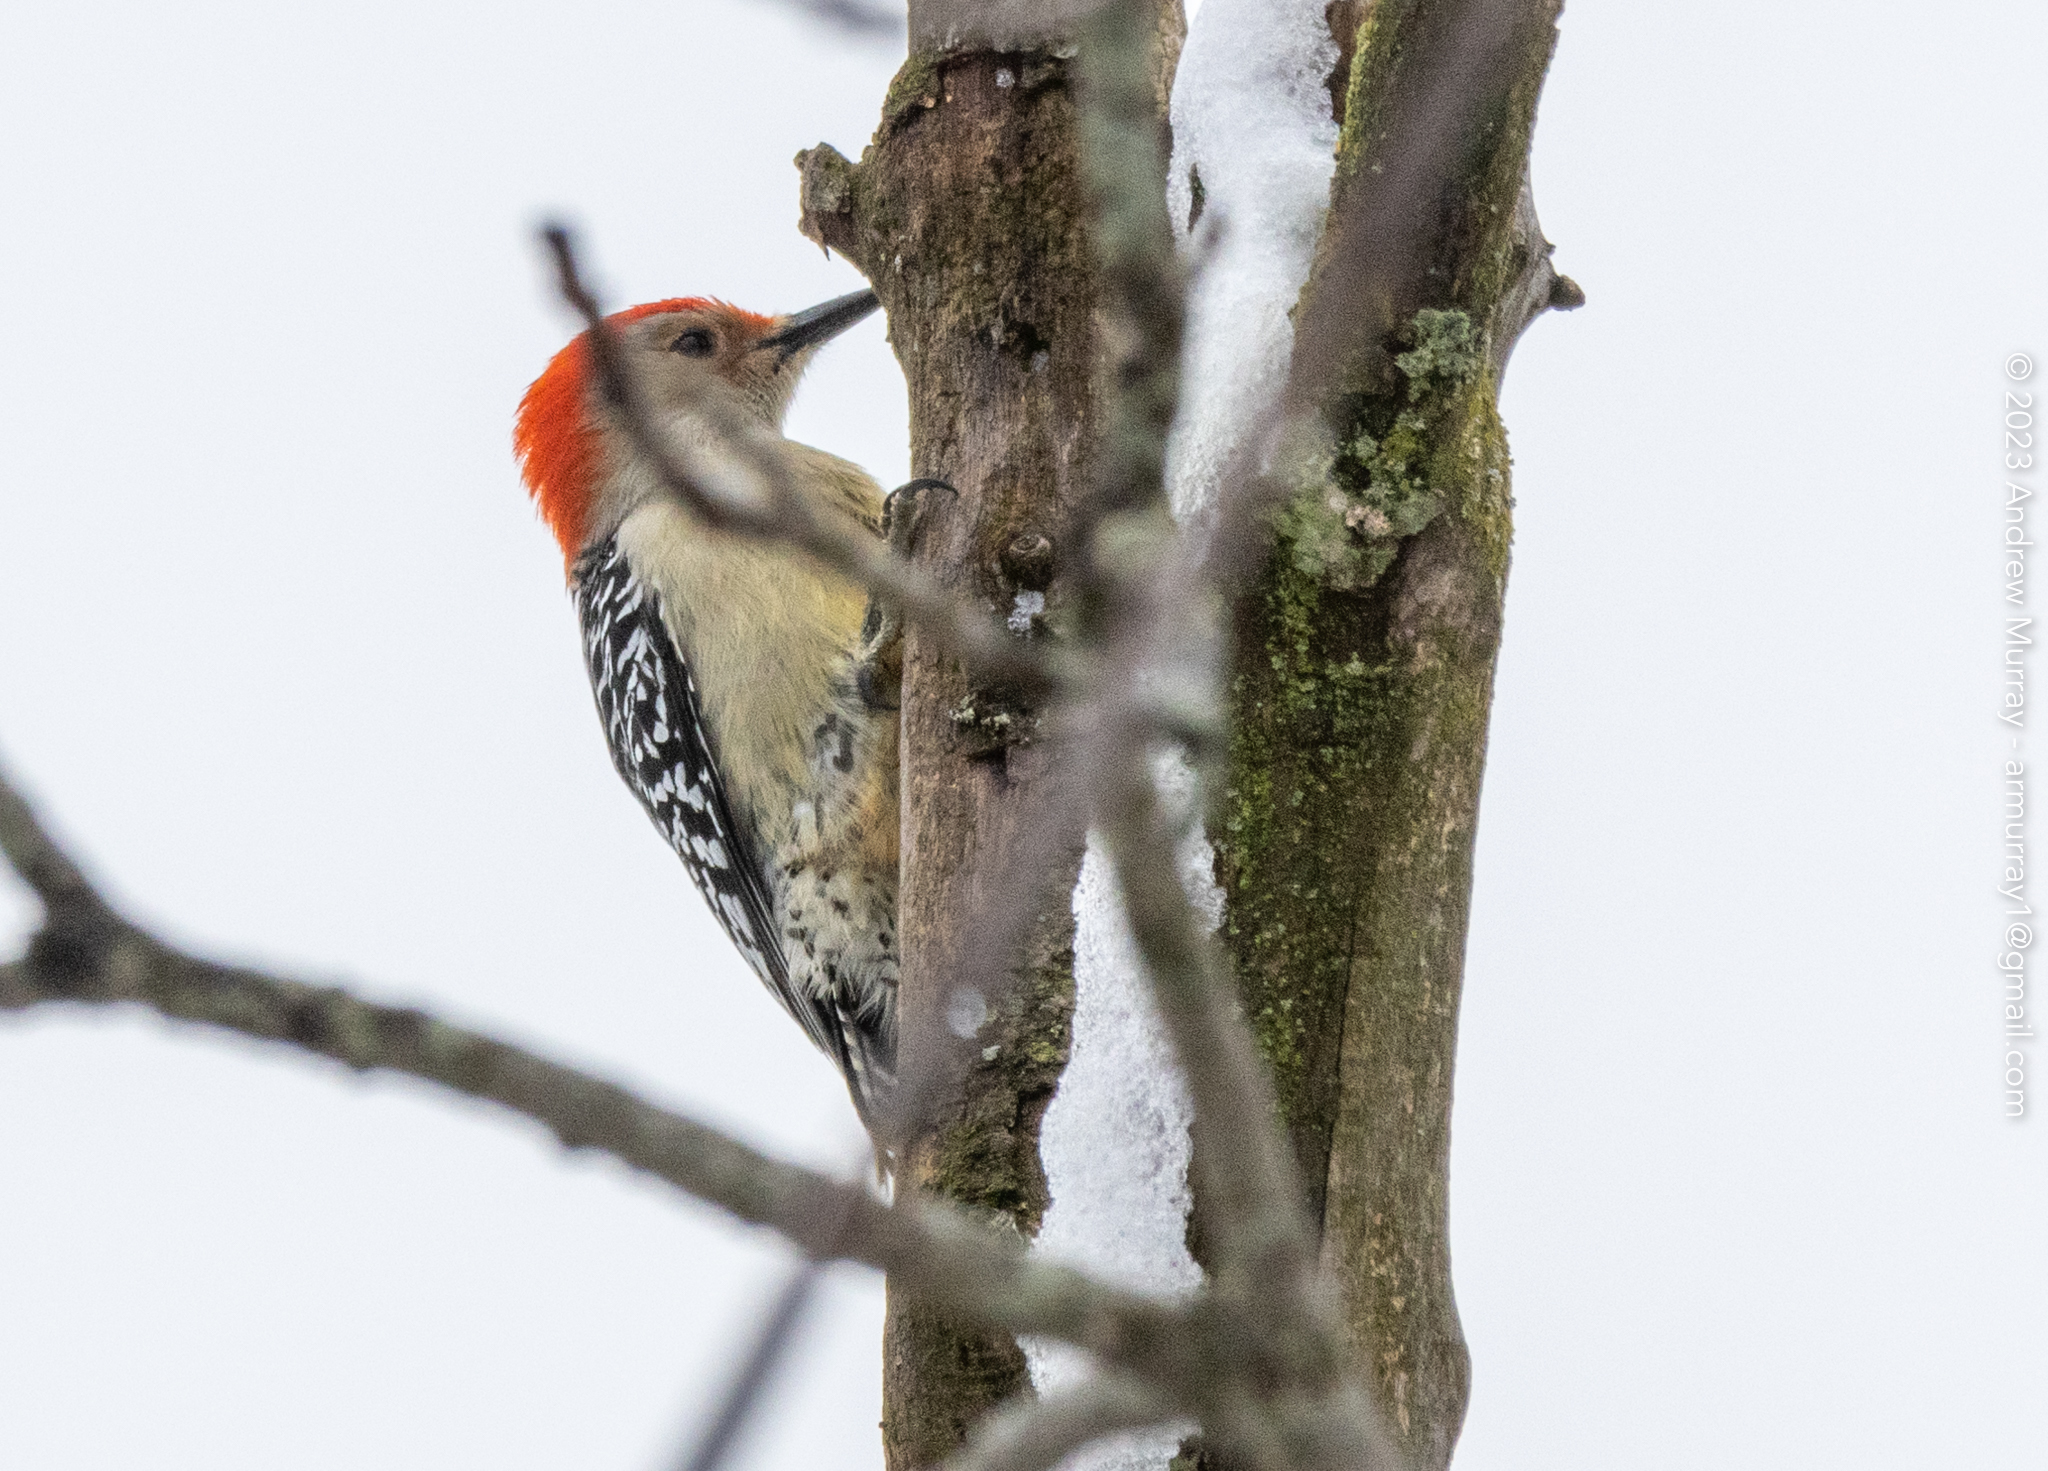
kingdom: Animalia
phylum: Chordata
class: Aves
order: Piciformes
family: Picidae
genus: Melanerpes
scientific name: Melanerpes carolinus
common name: Red-bellied woodpecker
